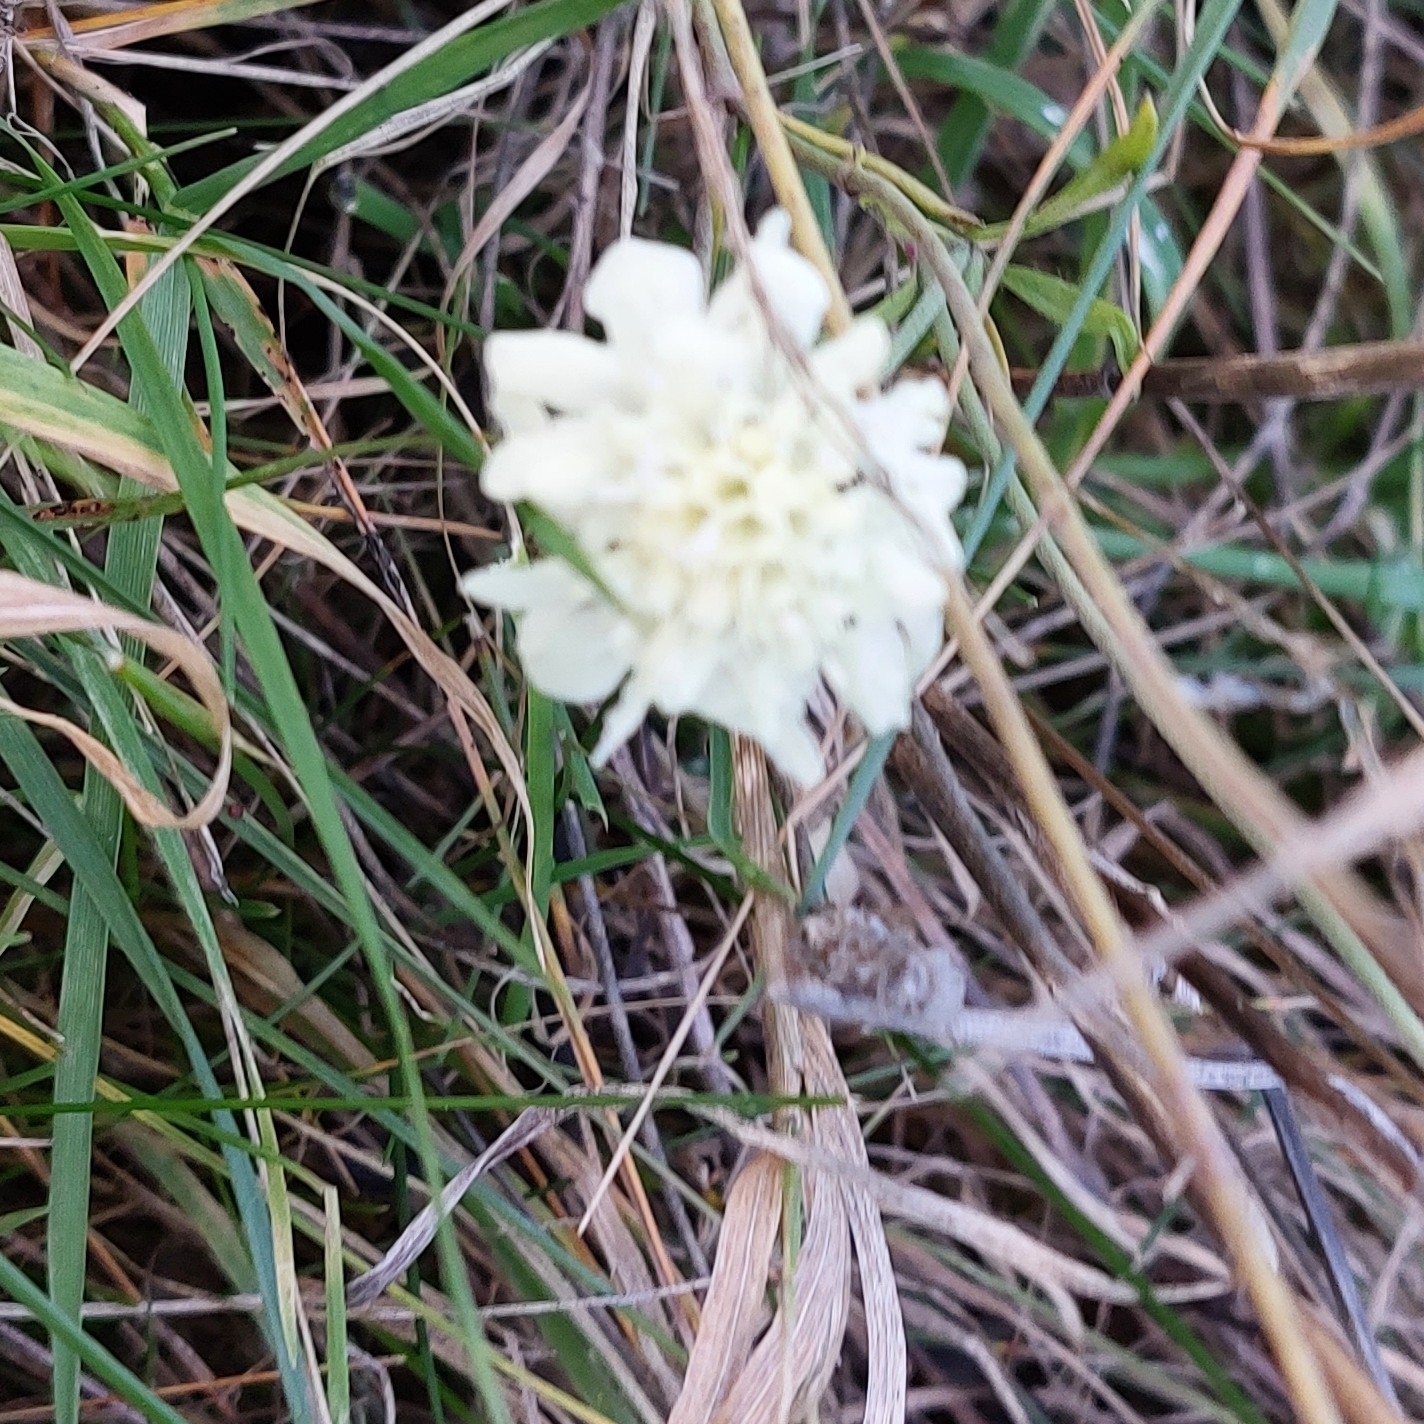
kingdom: Plantae
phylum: Tracheophyta
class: Magnoliopsida
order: Dipsacales
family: Caprifoliaceae
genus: Scabiosa
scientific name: Scabiosa ochroleuca
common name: Cream pincushions
